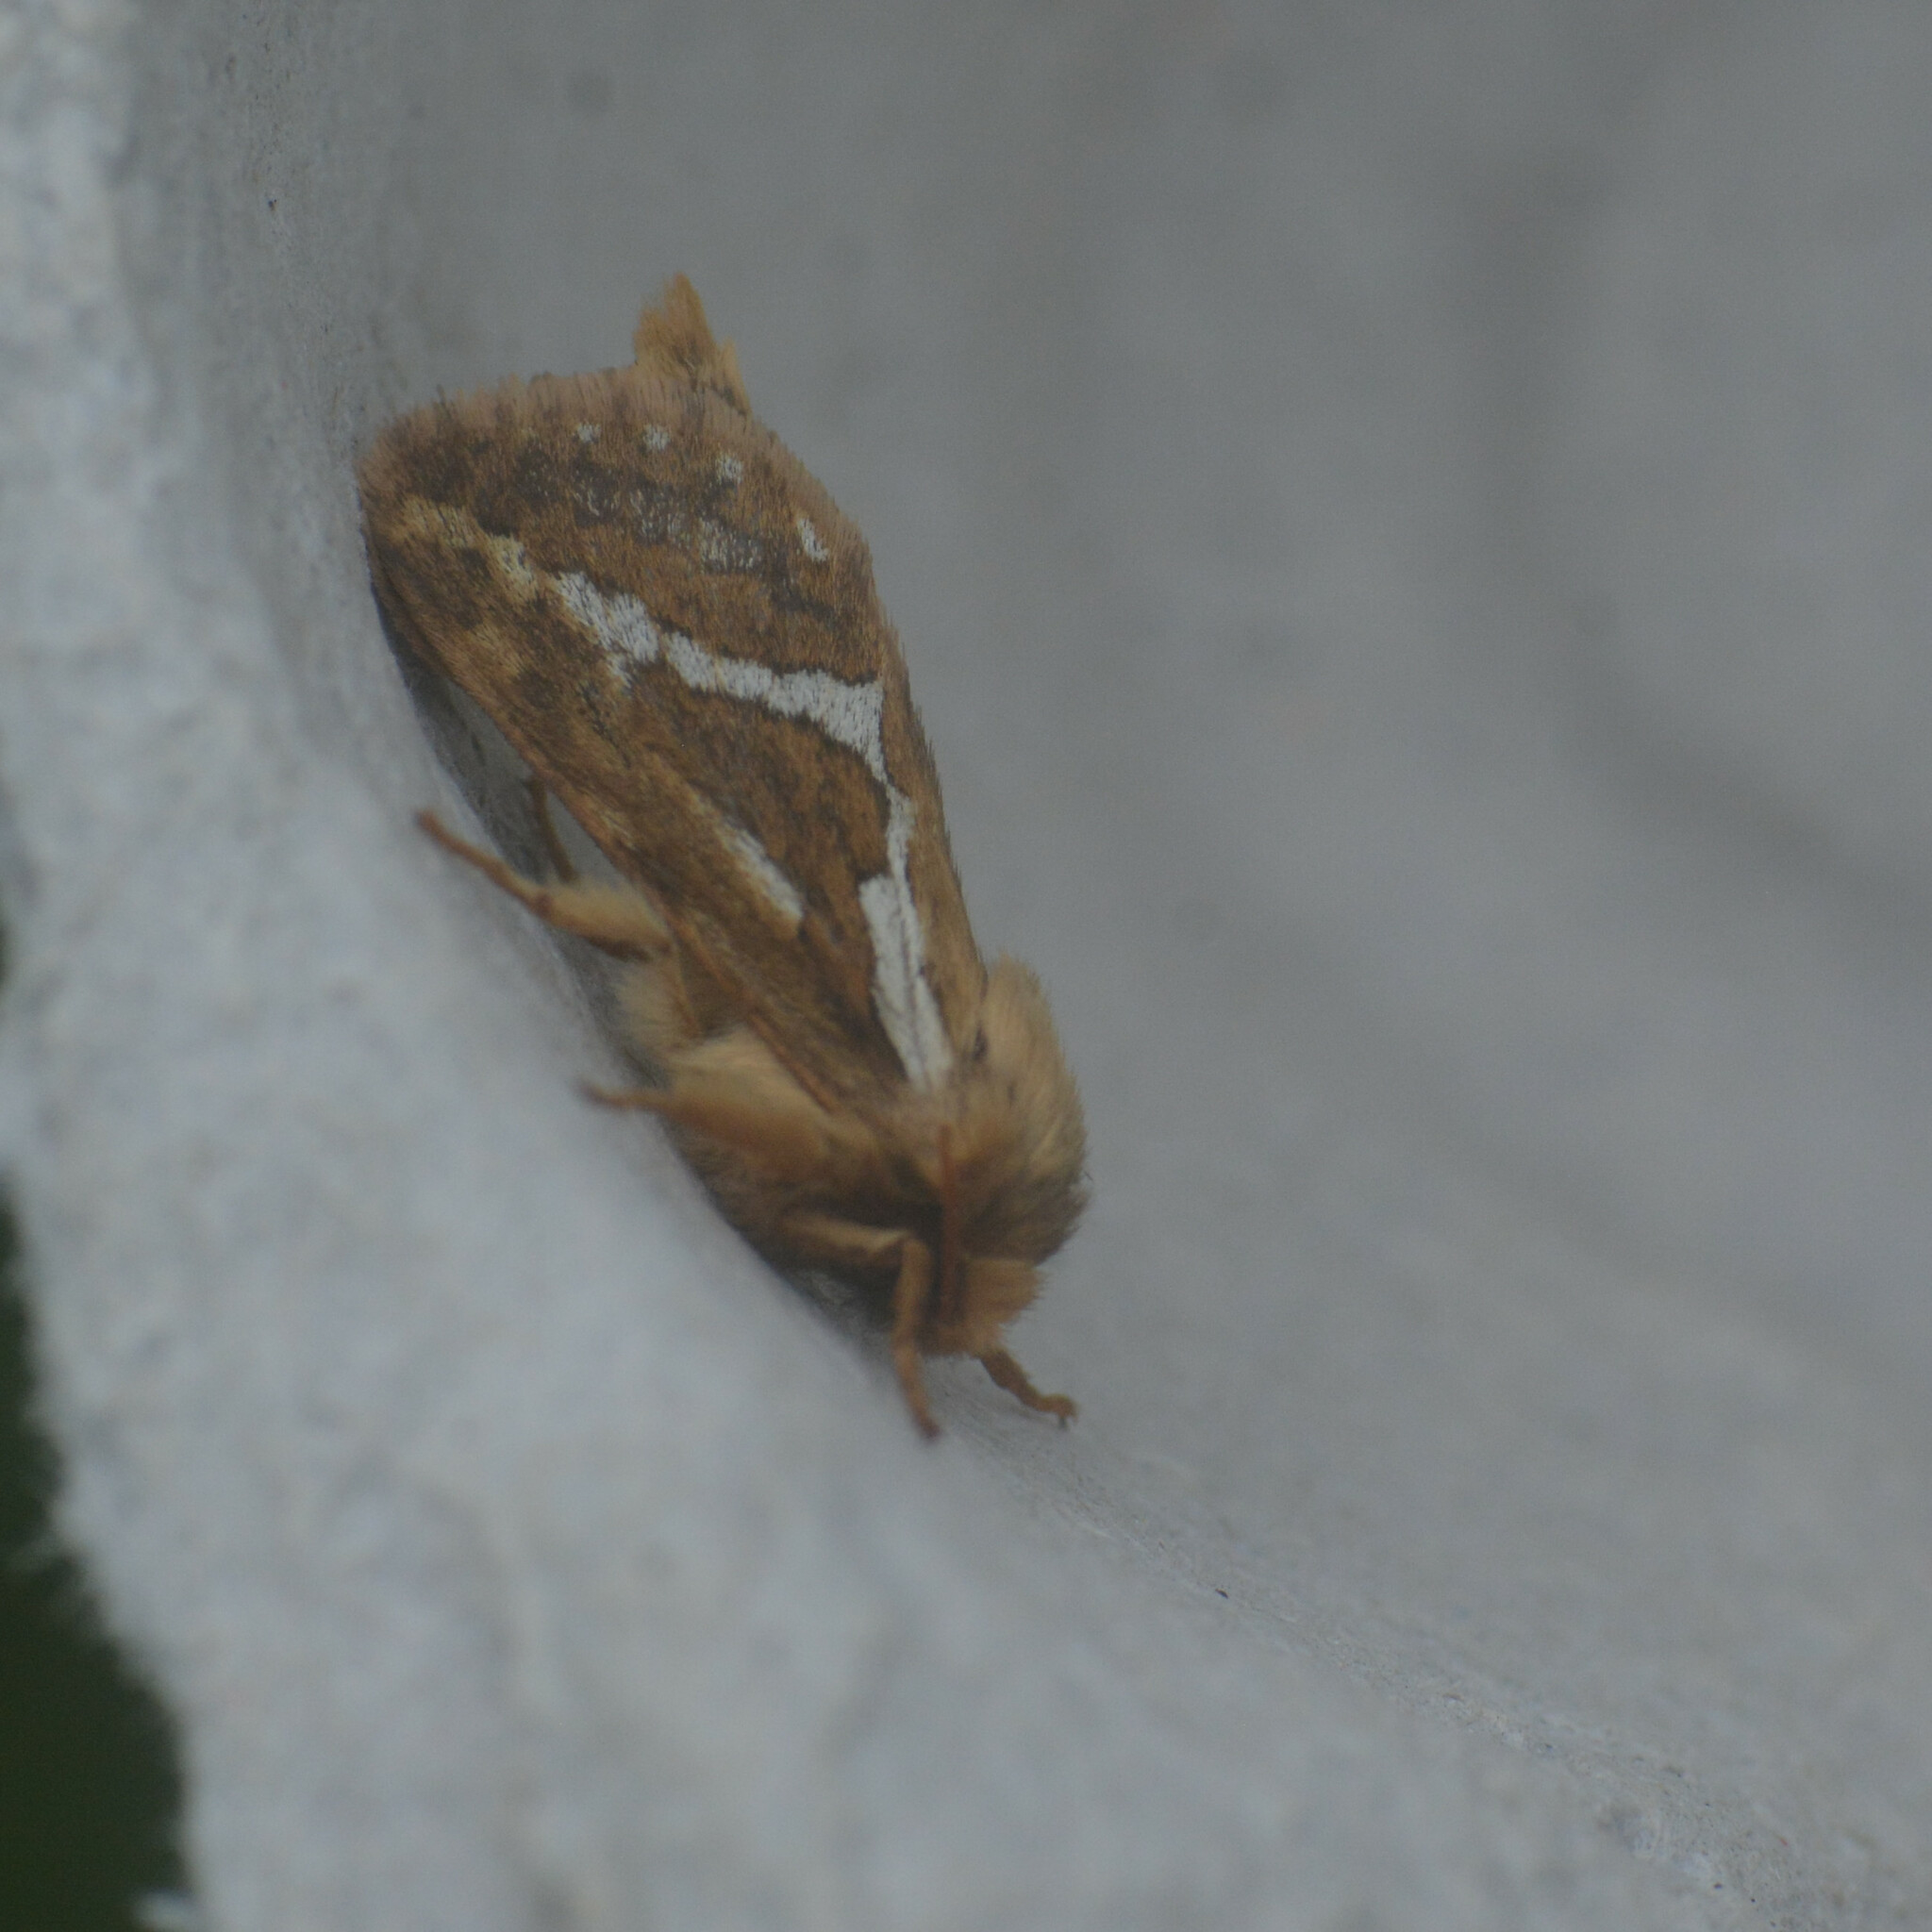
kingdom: Animalia
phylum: Arthropoda
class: Insecta
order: Lepidoptera
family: Hepialidae
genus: Korscheltellus
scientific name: Korscheltellus lupulina
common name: Common swift
